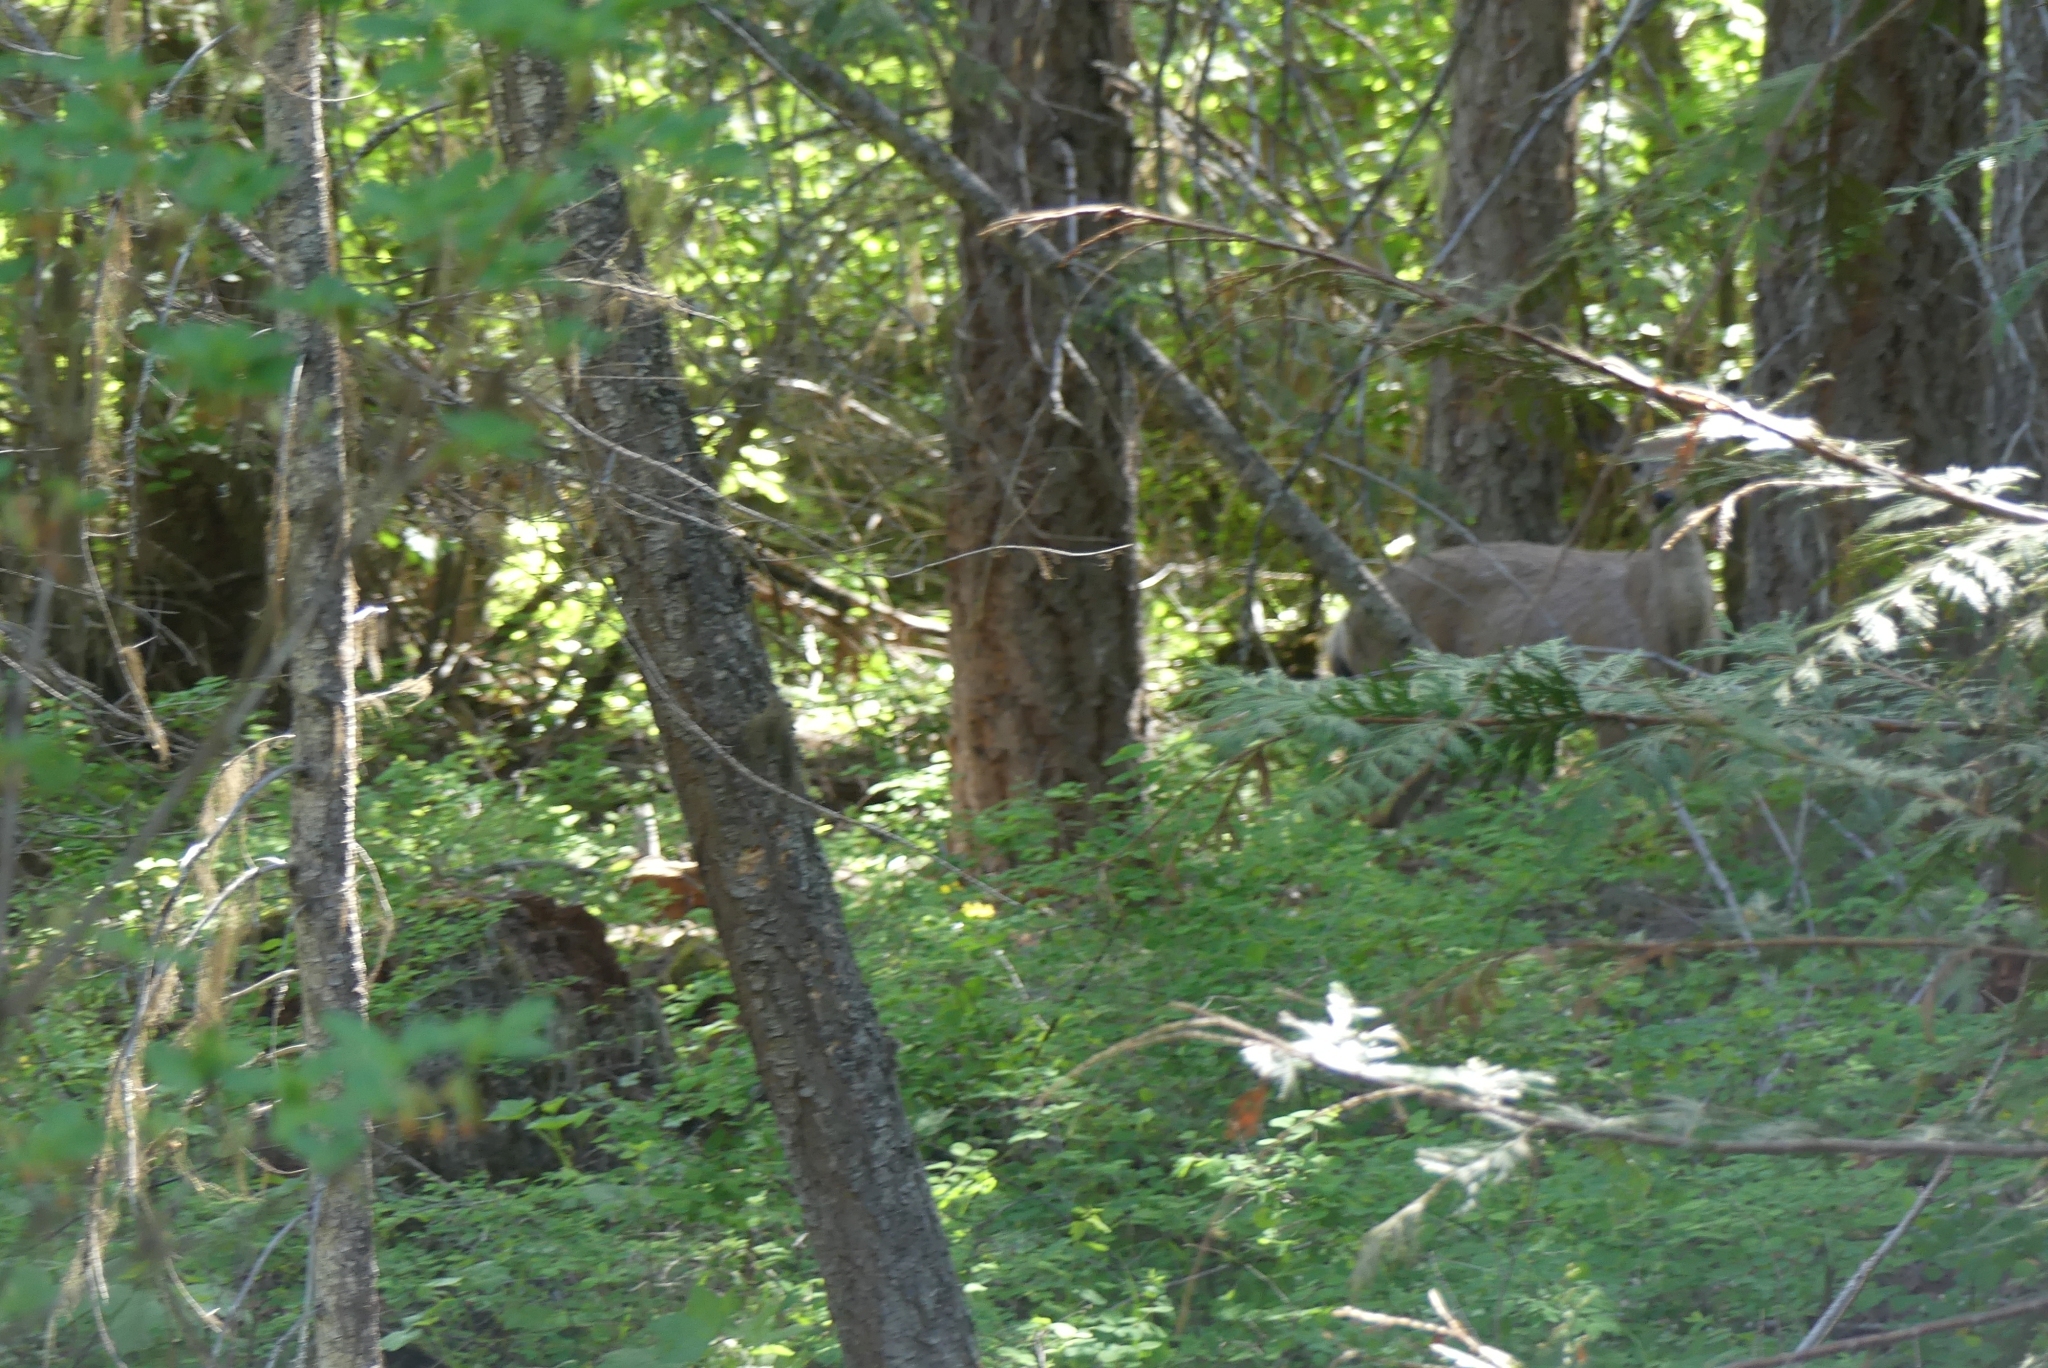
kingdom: Animalia
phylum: Chordata
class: Mammalia
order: Artiodactyla
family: Cervidae
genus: Odocoileus
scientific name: Odocoileus hemionus
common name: Mule deer
